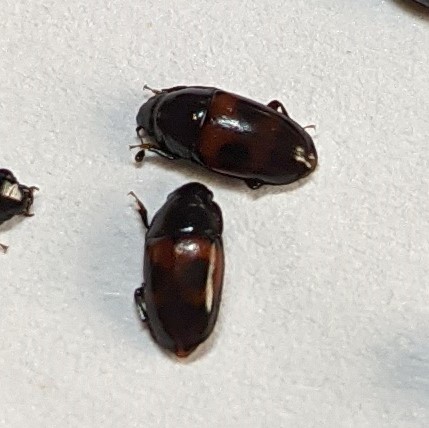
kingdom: Animalia
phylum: Arthropoda
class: Insecta
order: Coleoptera
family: Nitidulidae
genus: Glischrochilus
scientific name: Glischrochilus sanguinolentus
